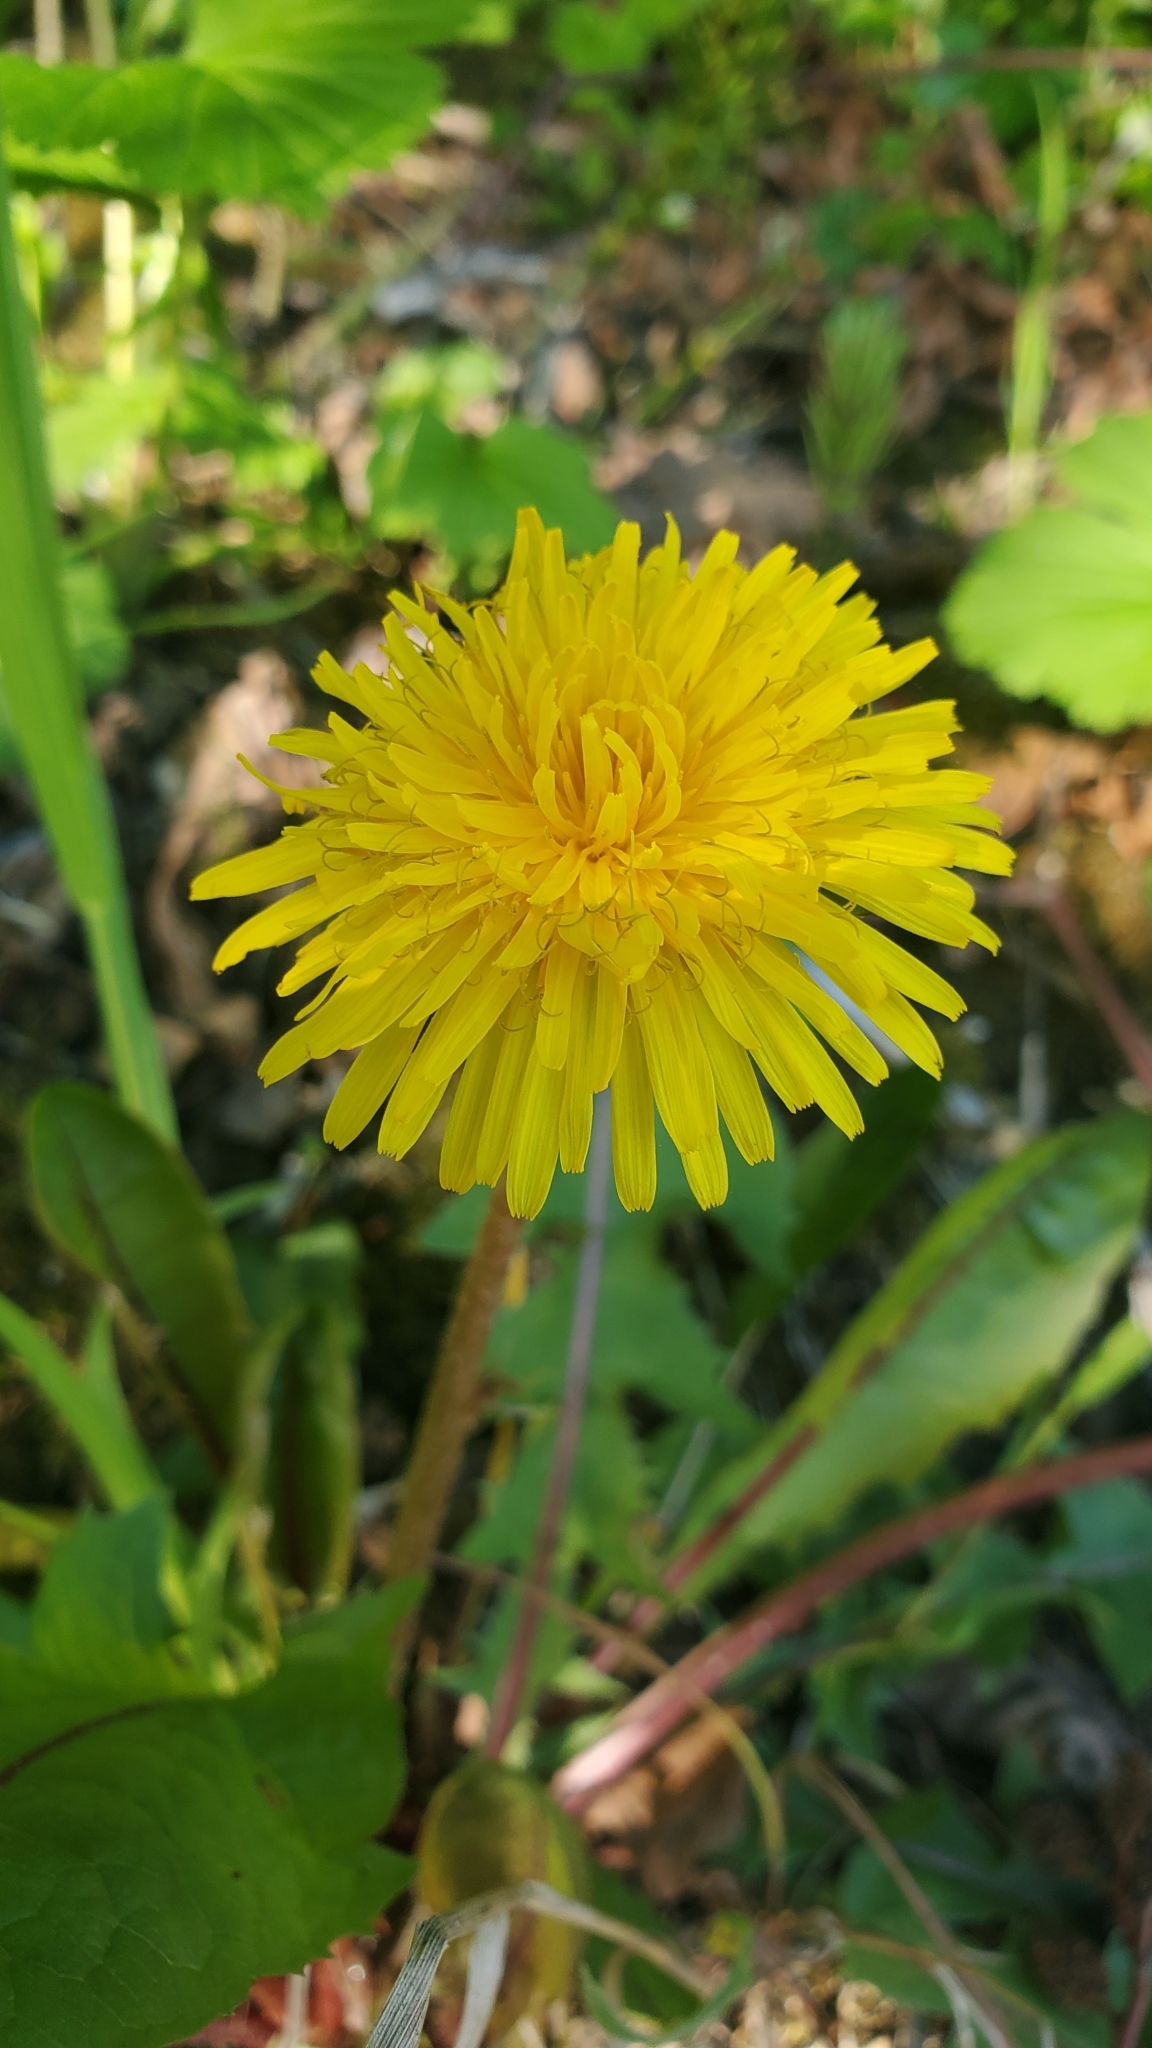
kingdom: Plantae
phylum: Tracheophyta
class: Magnoliopsida
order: Asterales
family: Asteraceae
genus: Taraxacum
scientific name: Taraxacum officinale
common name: Common dandelion
